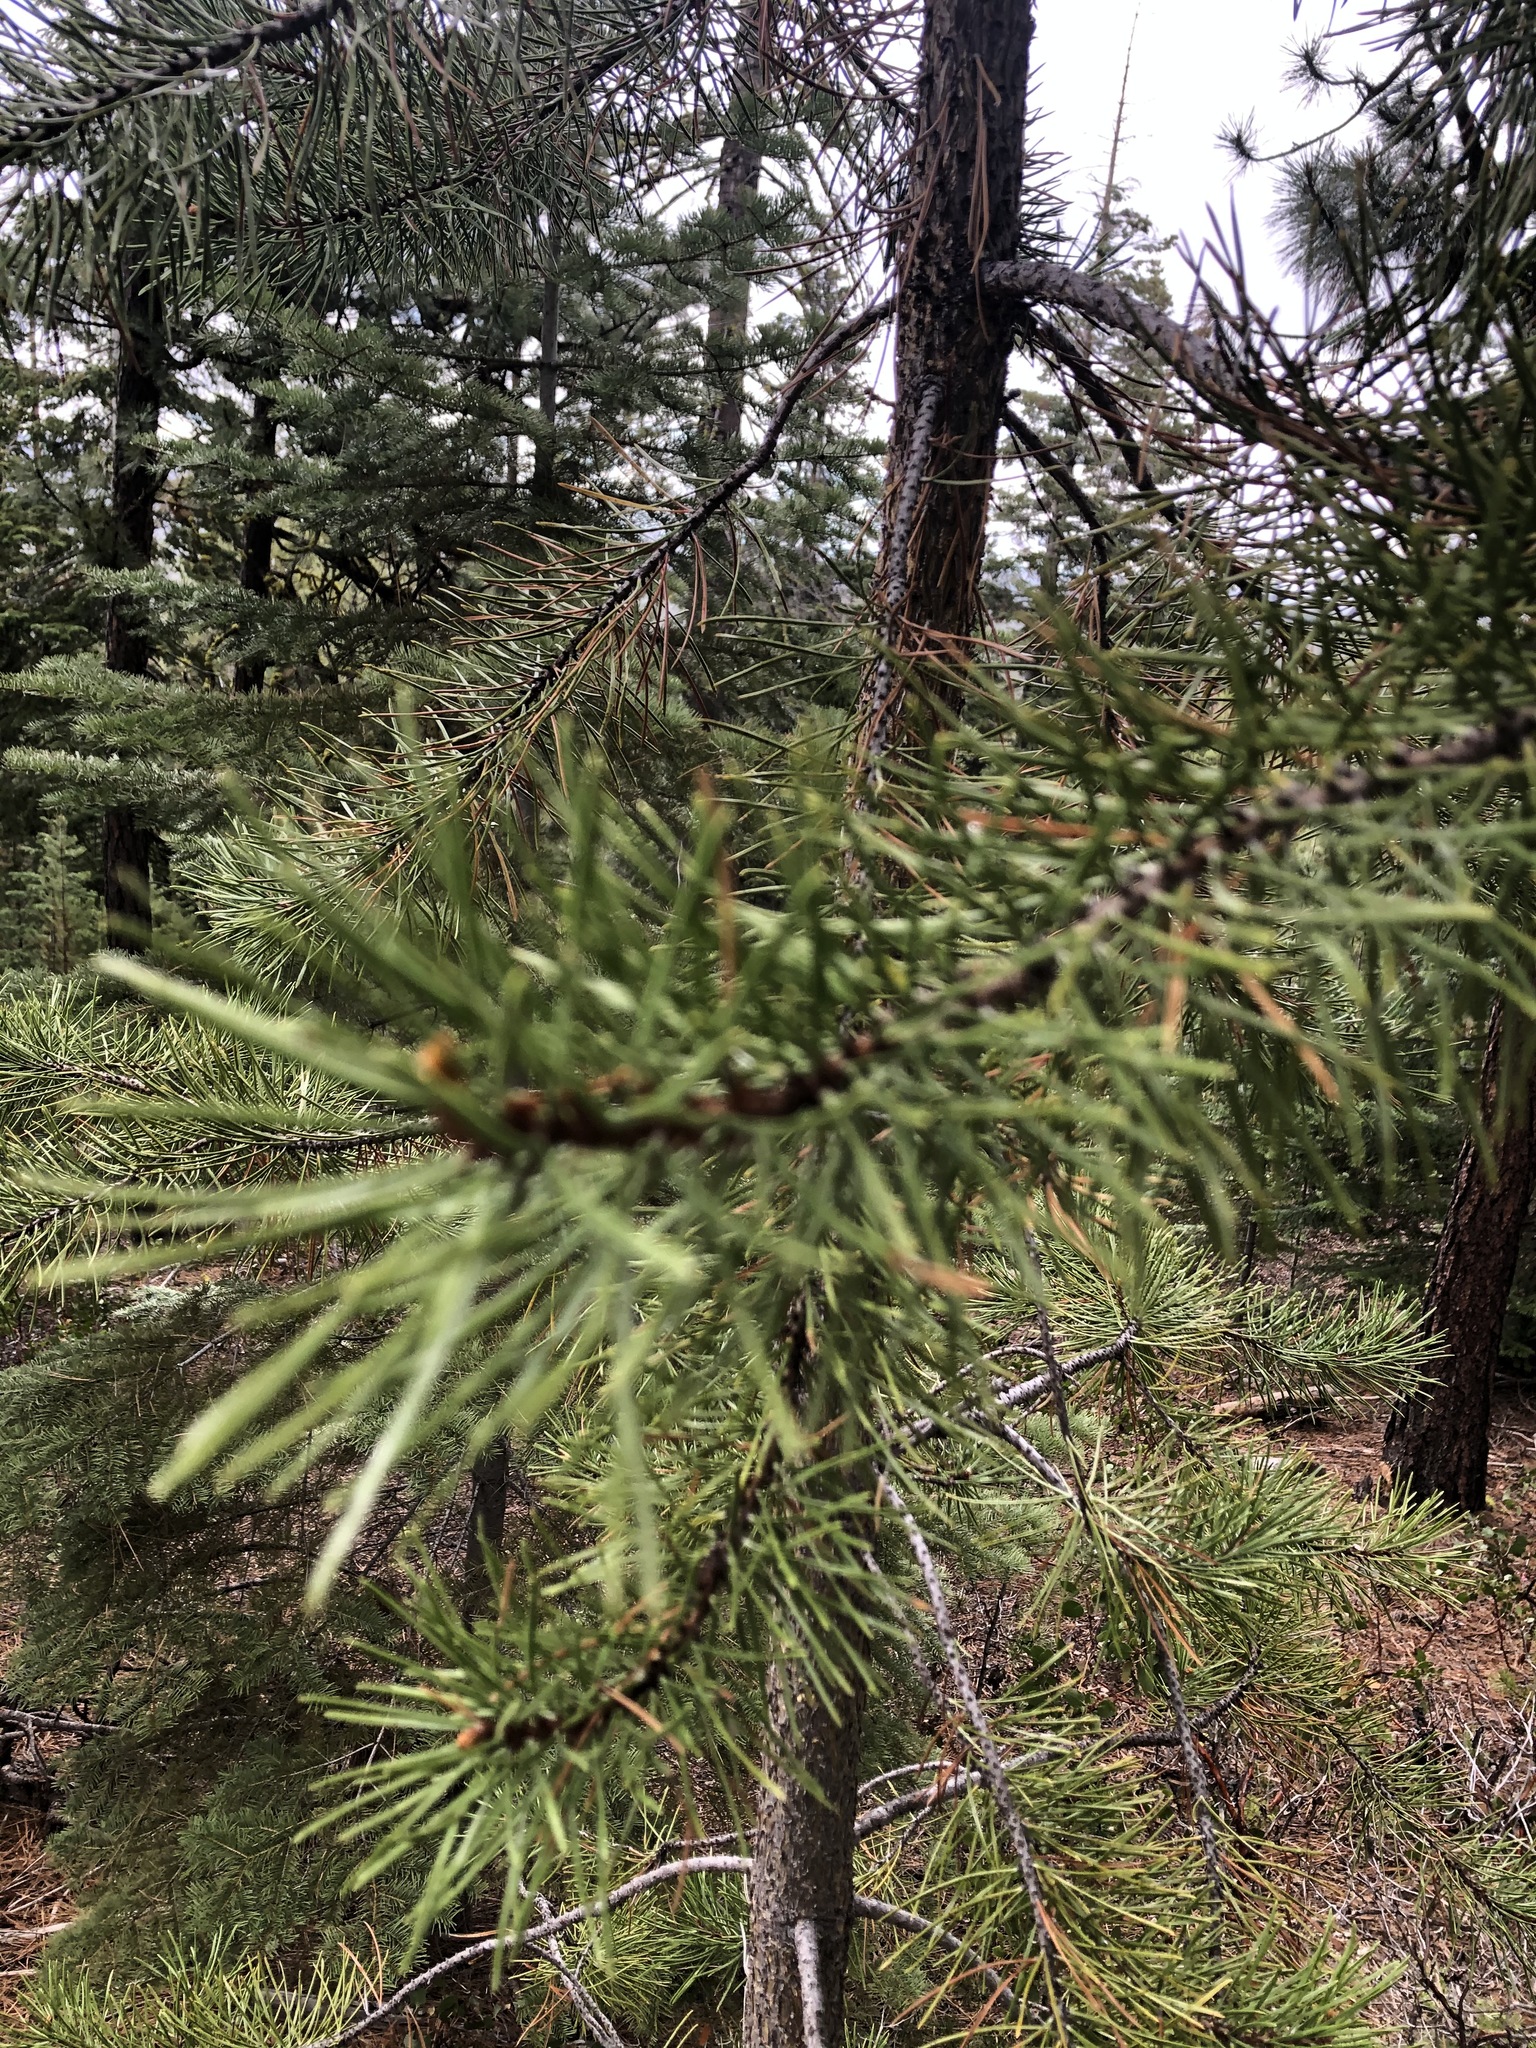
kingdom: Plantae
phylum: Tracheophyta
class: Pinopsida
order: Pinales
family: Pinaceae
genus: Pinus
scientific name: Pinus contorta
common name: Lodgepole pine
